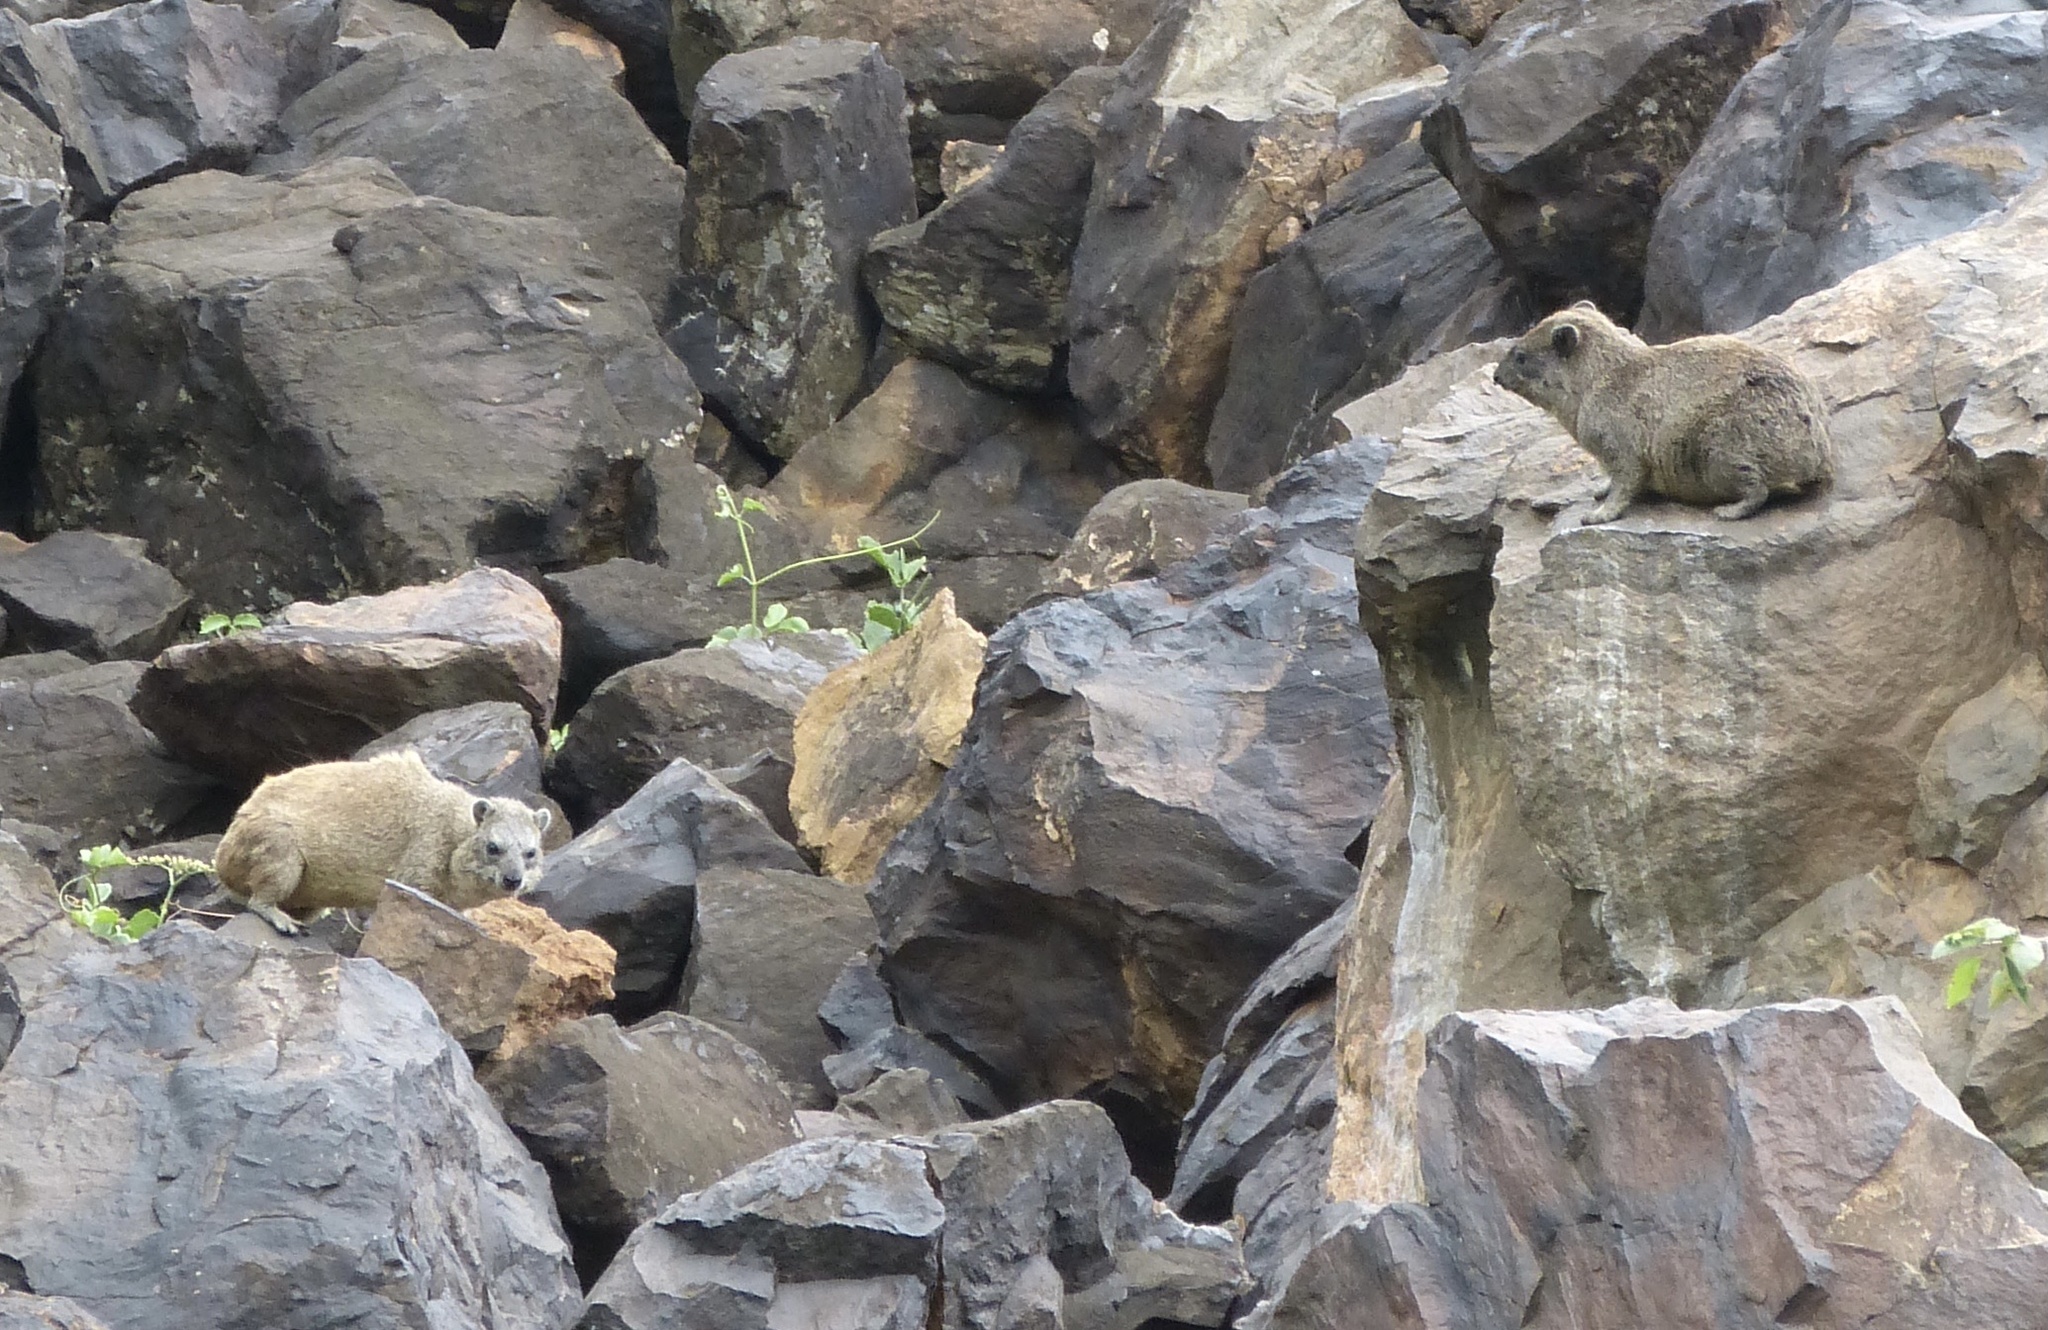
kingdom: Animalia
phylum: Chordata
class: Mammalia
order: Hyracoidea
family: Procaviidae
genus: Procavia
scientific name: Procavia capensis
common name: Rock hyrax
